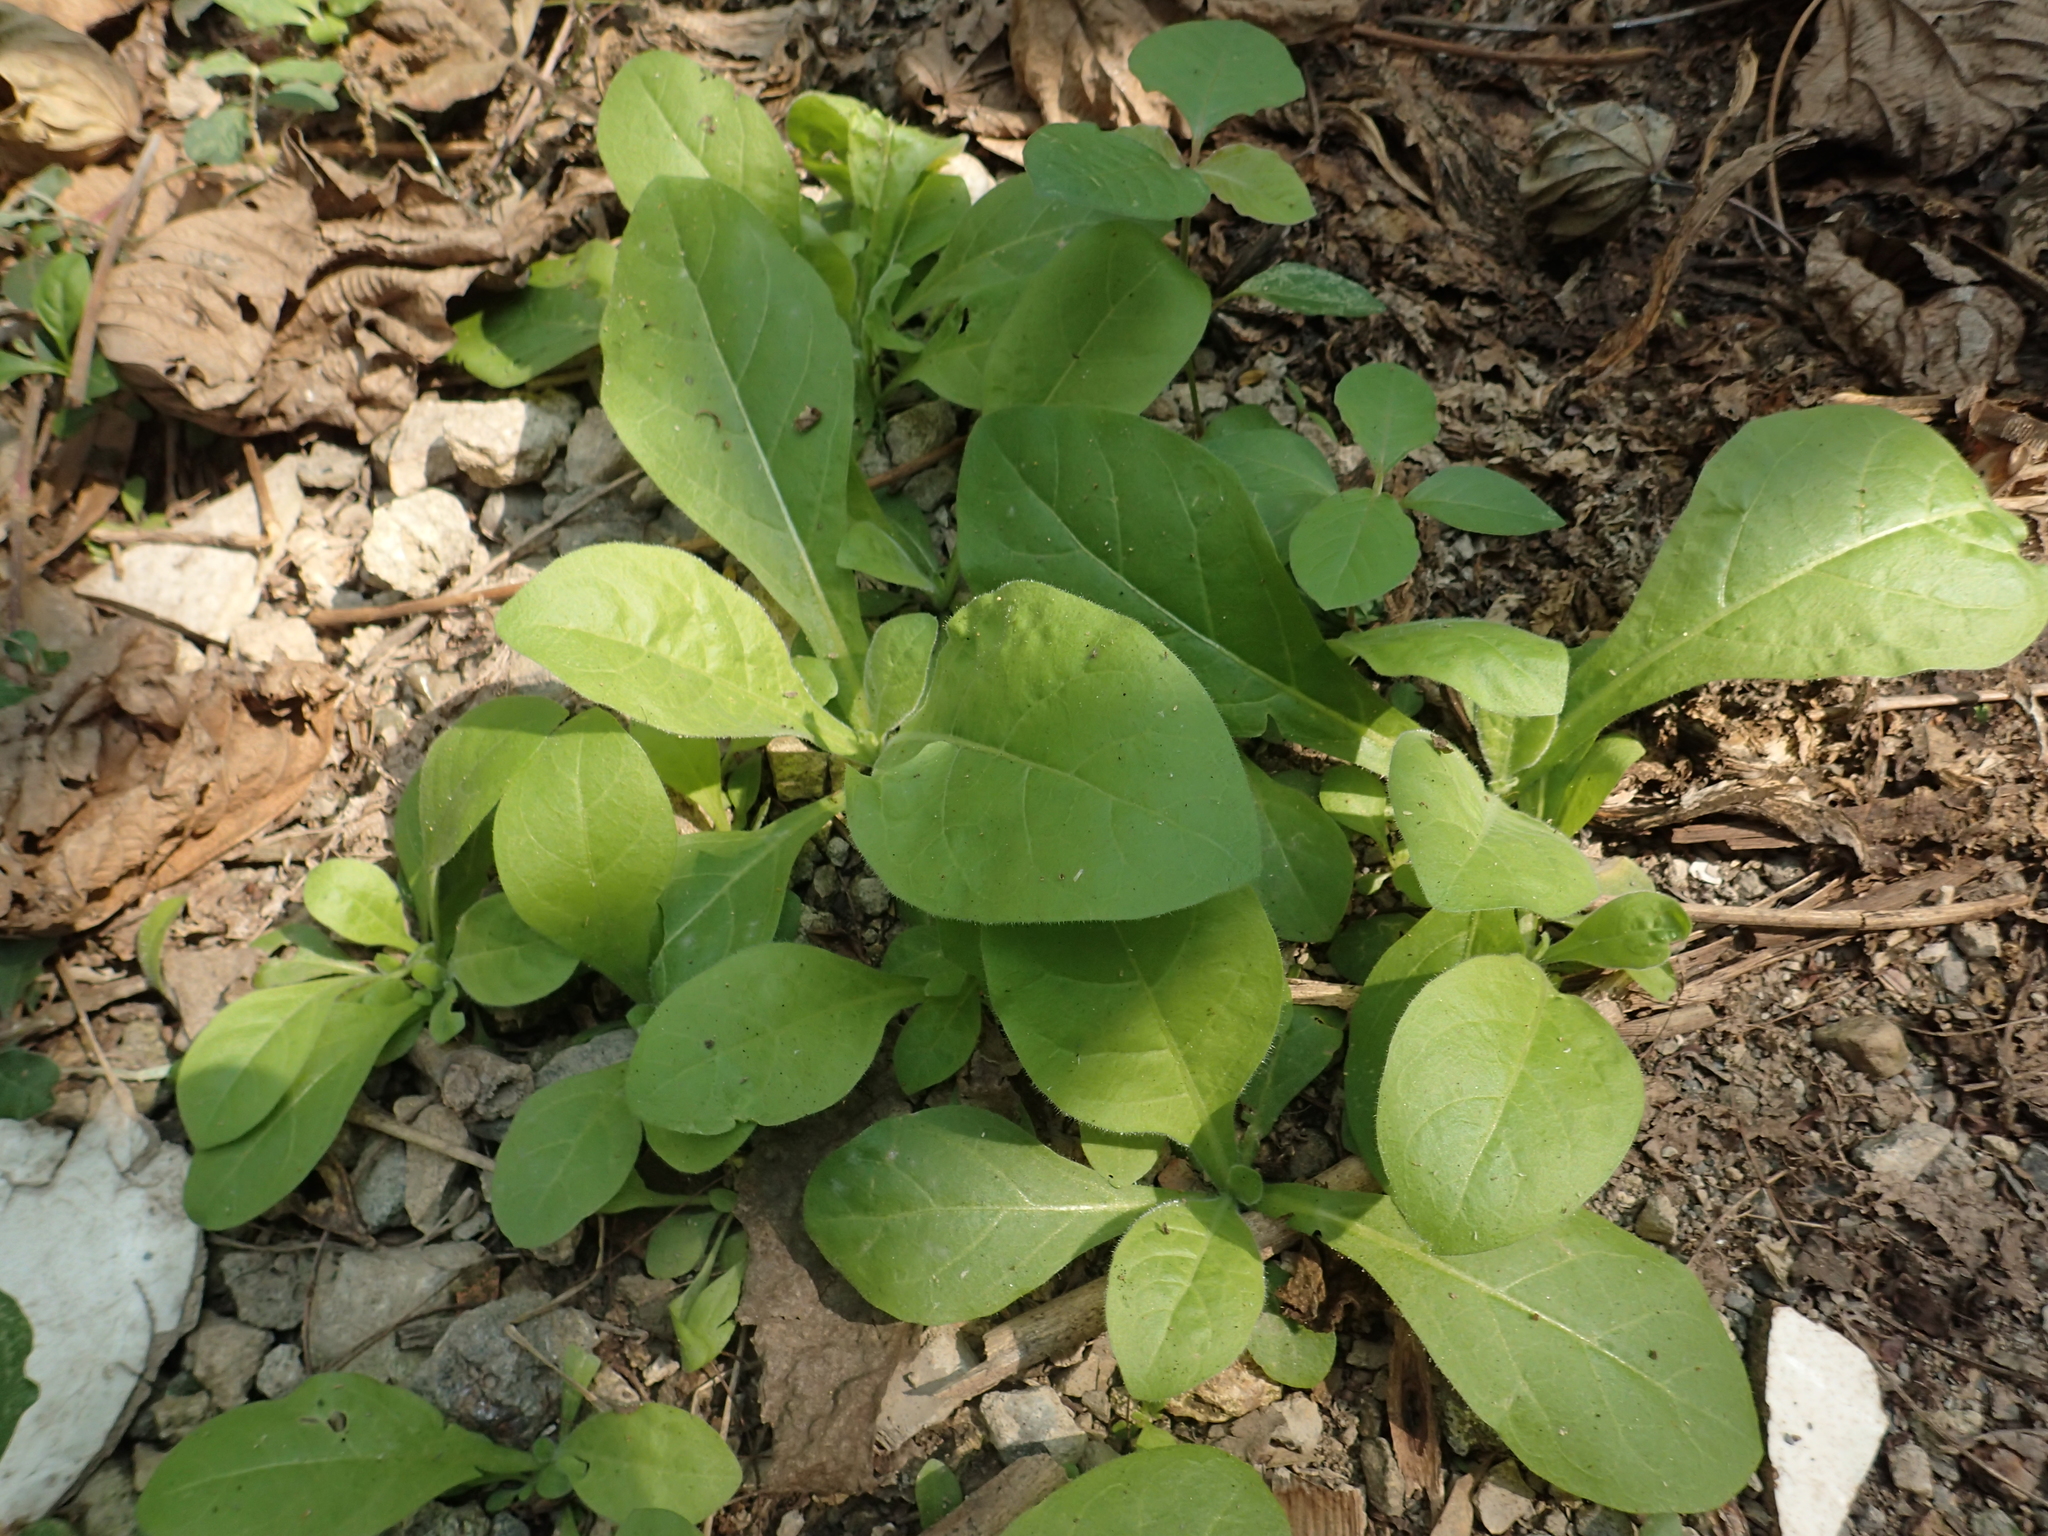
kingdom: Plantae
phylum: Tracheophyta
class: Magnoliopsida
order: Solanales
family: Solanaceae
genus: Nicotiana
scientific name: Nicotiana plumbaginifolia
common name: Tex-mex tobacco
